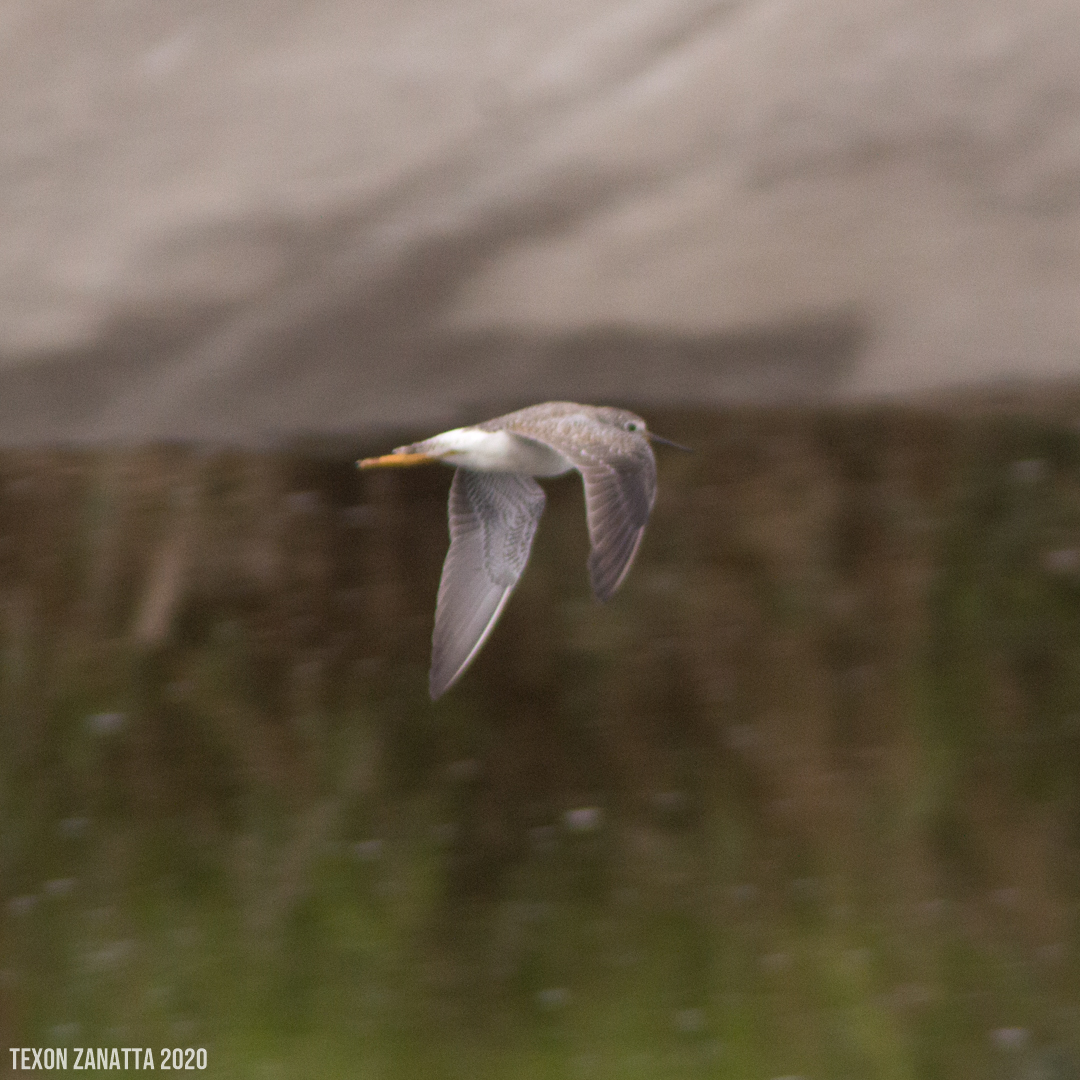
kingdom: Animalia
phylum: Chordata
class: Aves
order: Charadriiformes
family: Scolopacidae
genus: Tringa
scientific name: Tringa flavipes
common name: Lesser yellowlegs
